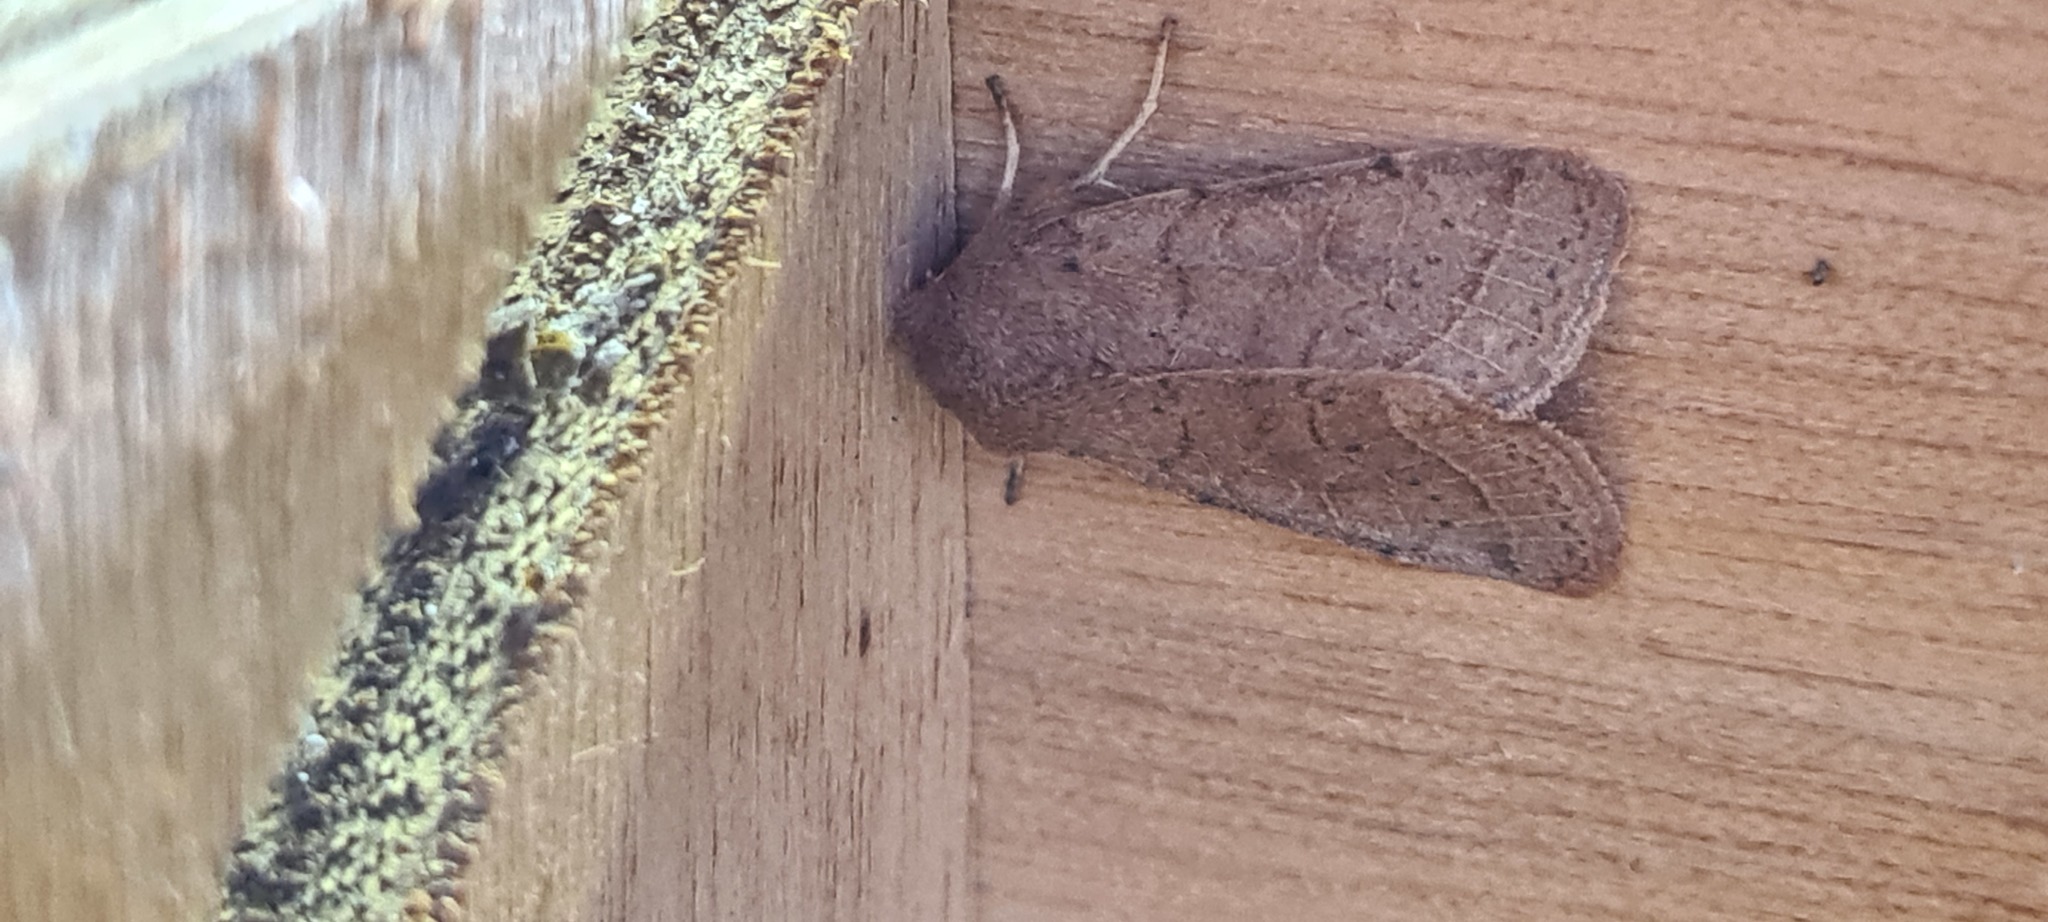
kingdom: Animalia
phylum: Arthropoda
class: Insecta
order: Lepidoptera
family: Noctuidae
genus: Orthosia
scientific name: Orthosia cerasi
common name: Common quaker
